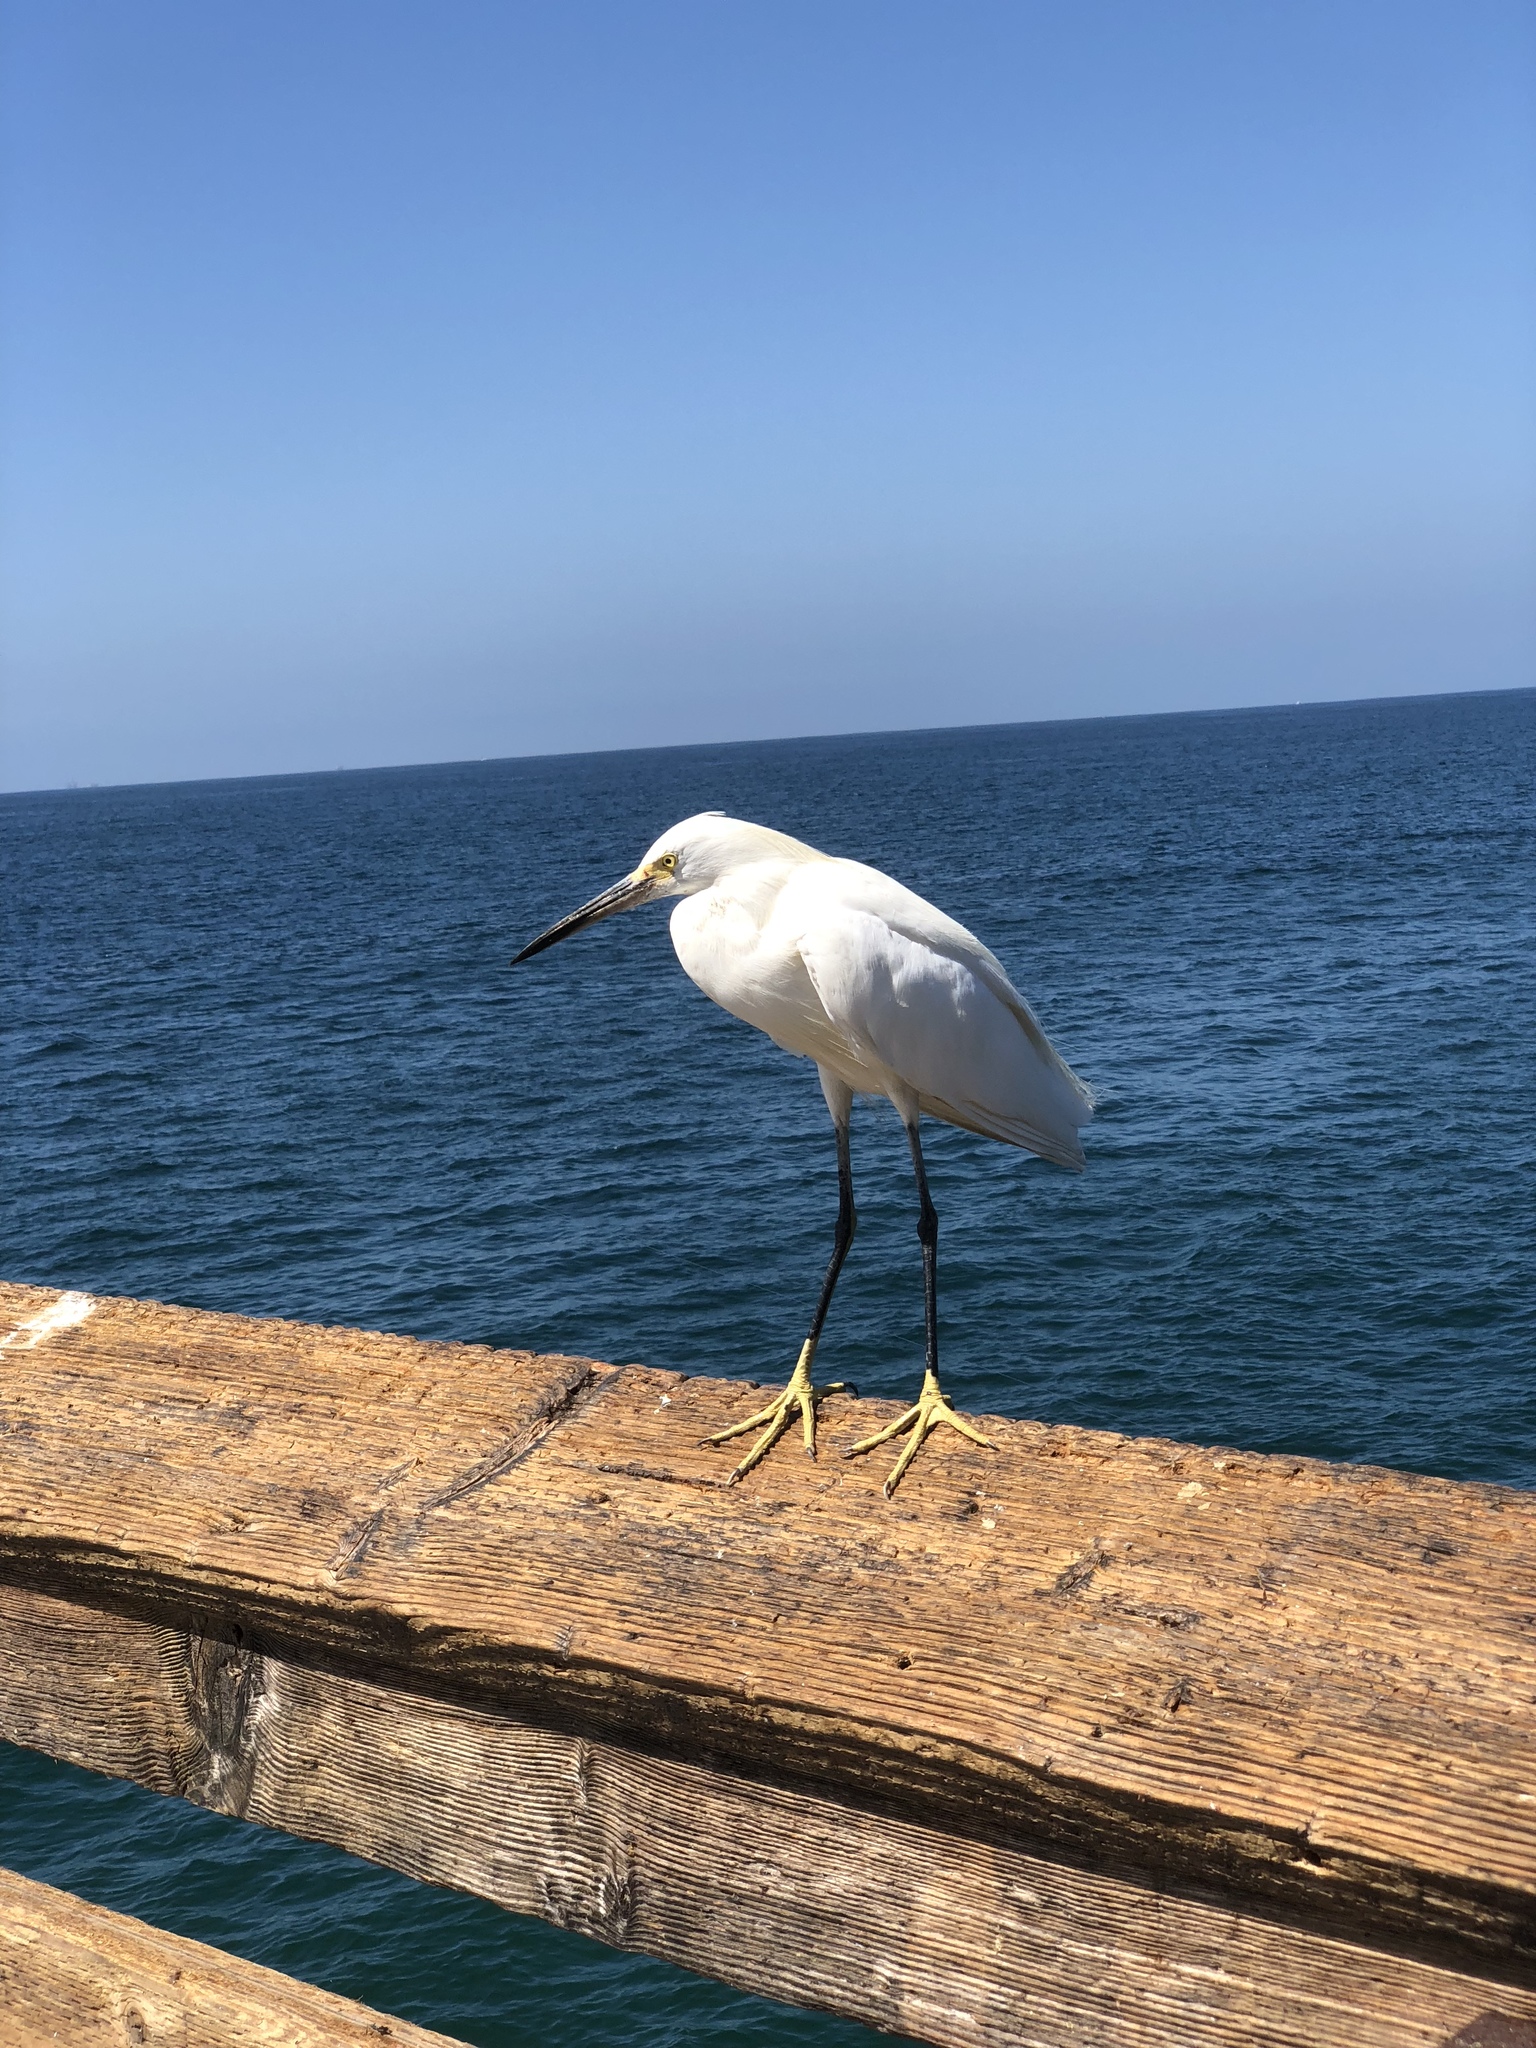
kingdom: Animalia
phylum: Chordata
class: Aves
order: Pelecaniformes
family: Ardeidae
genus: Egretta
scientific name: Egretta thula
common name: Snowy egret
